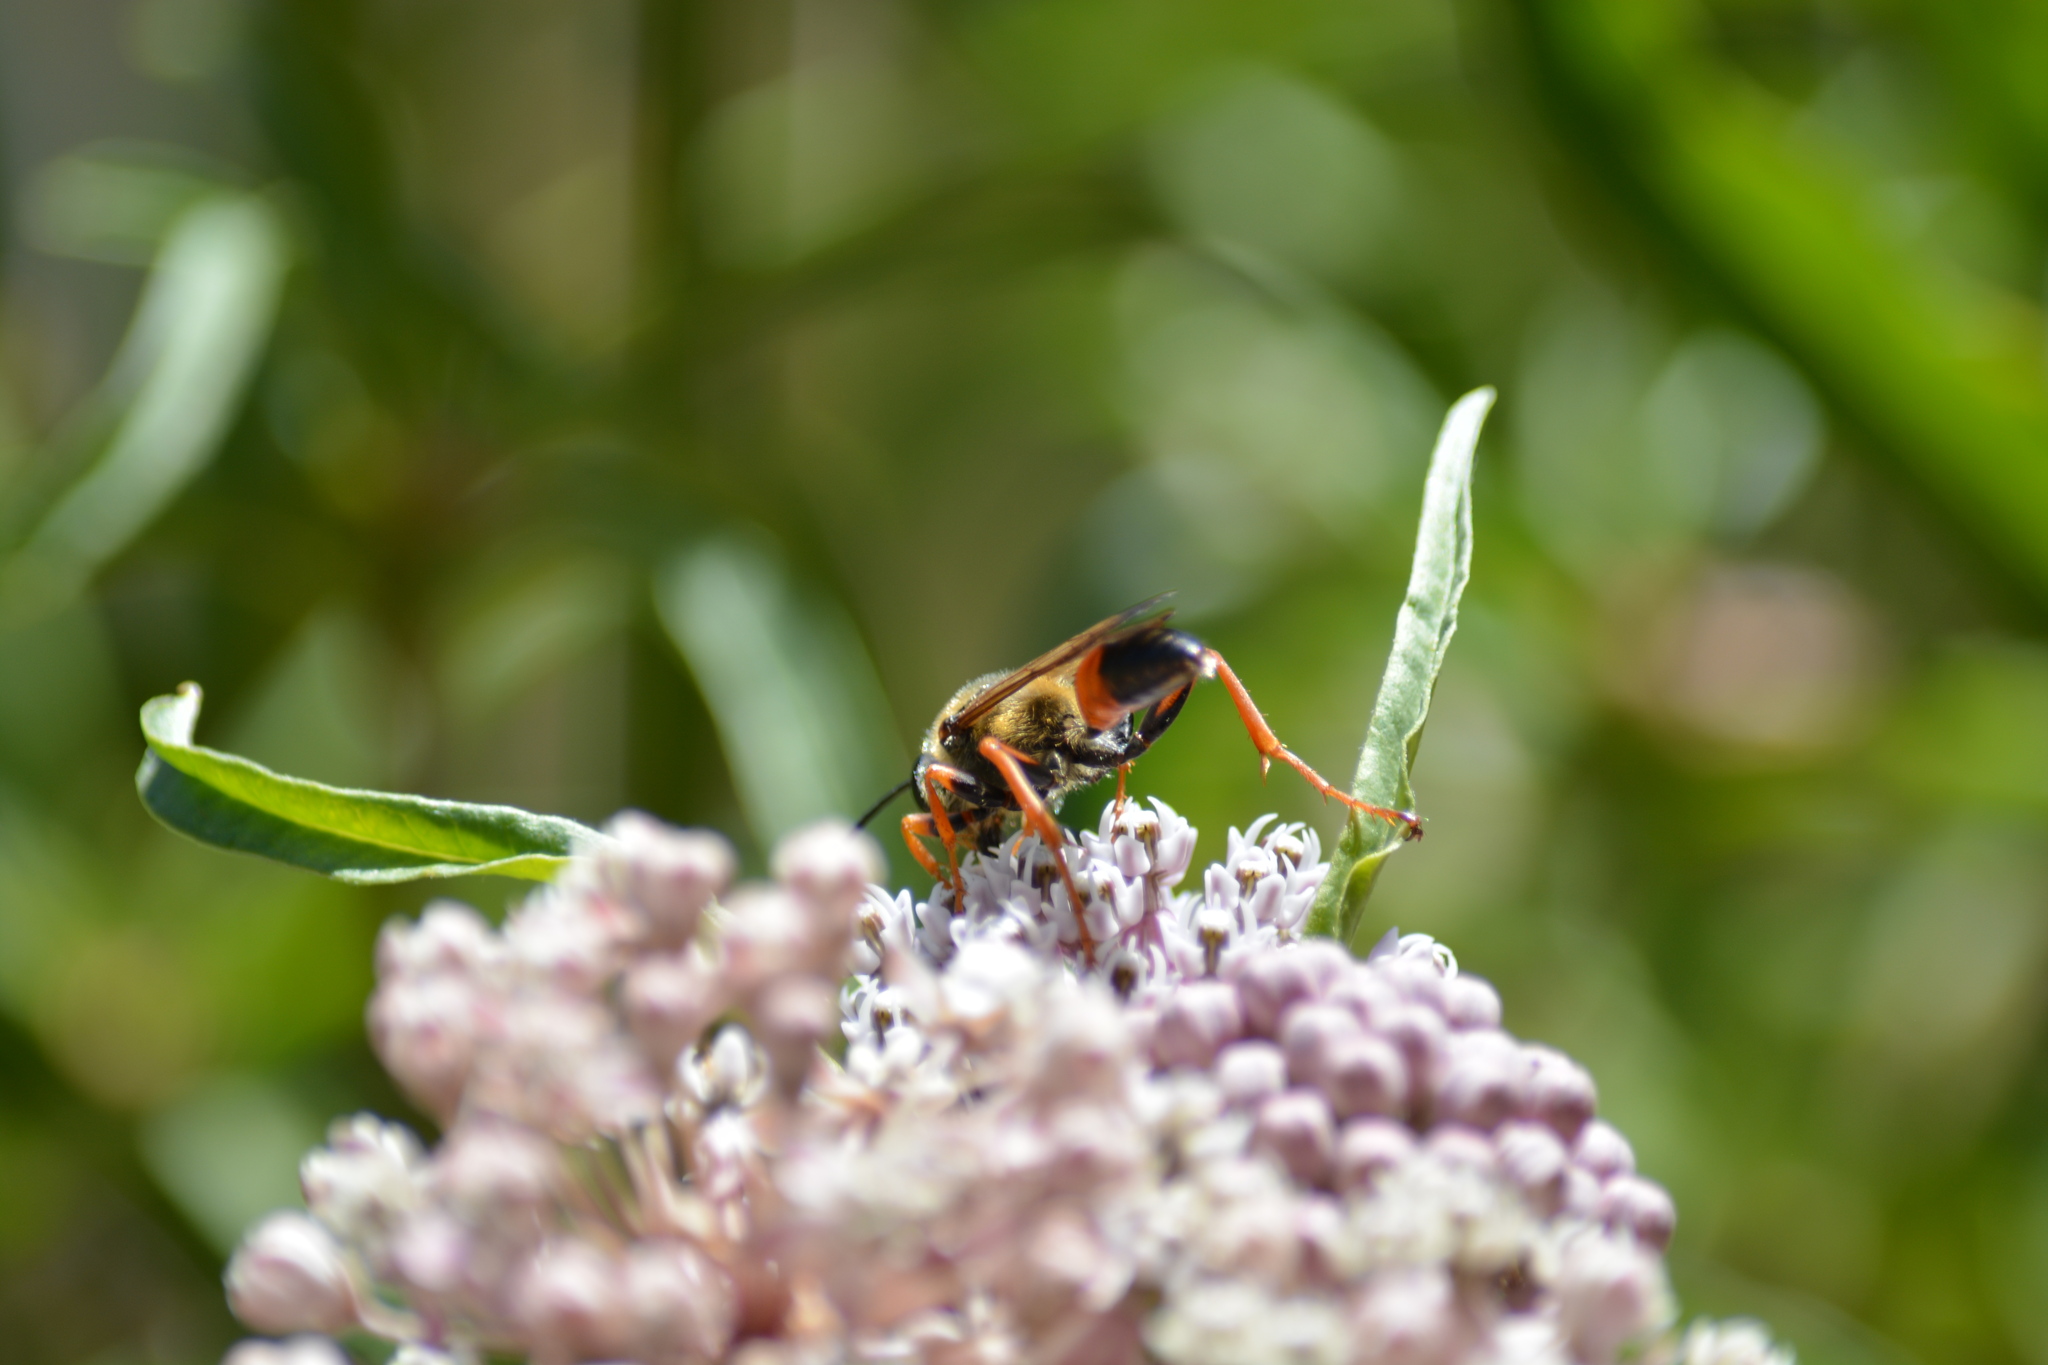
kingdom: Animalia
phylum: Arthropoda
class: Insecta
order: Hymenoptera
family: Sphecidae
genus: Sphex
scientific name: Sphex ichneumoneus
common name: Great golden digger wasp
